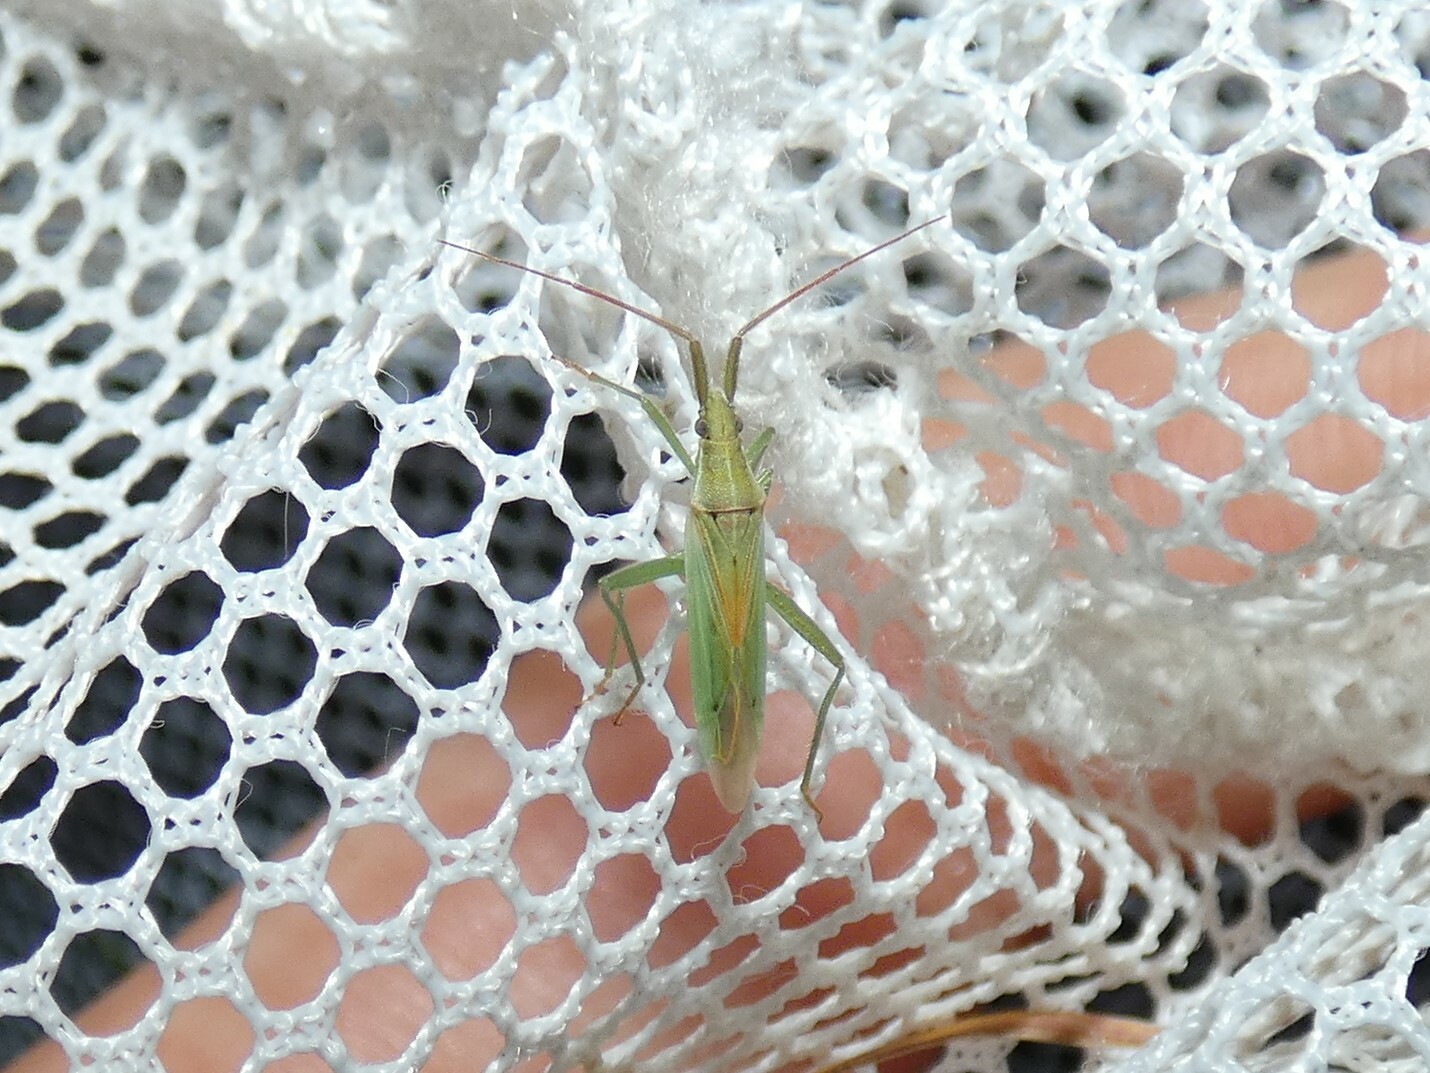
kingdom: Animalia
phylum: Arthropoda
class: Insecta
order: Hemiptera
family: Miridae
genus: Stenodema
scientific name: Stenodema laevigata
